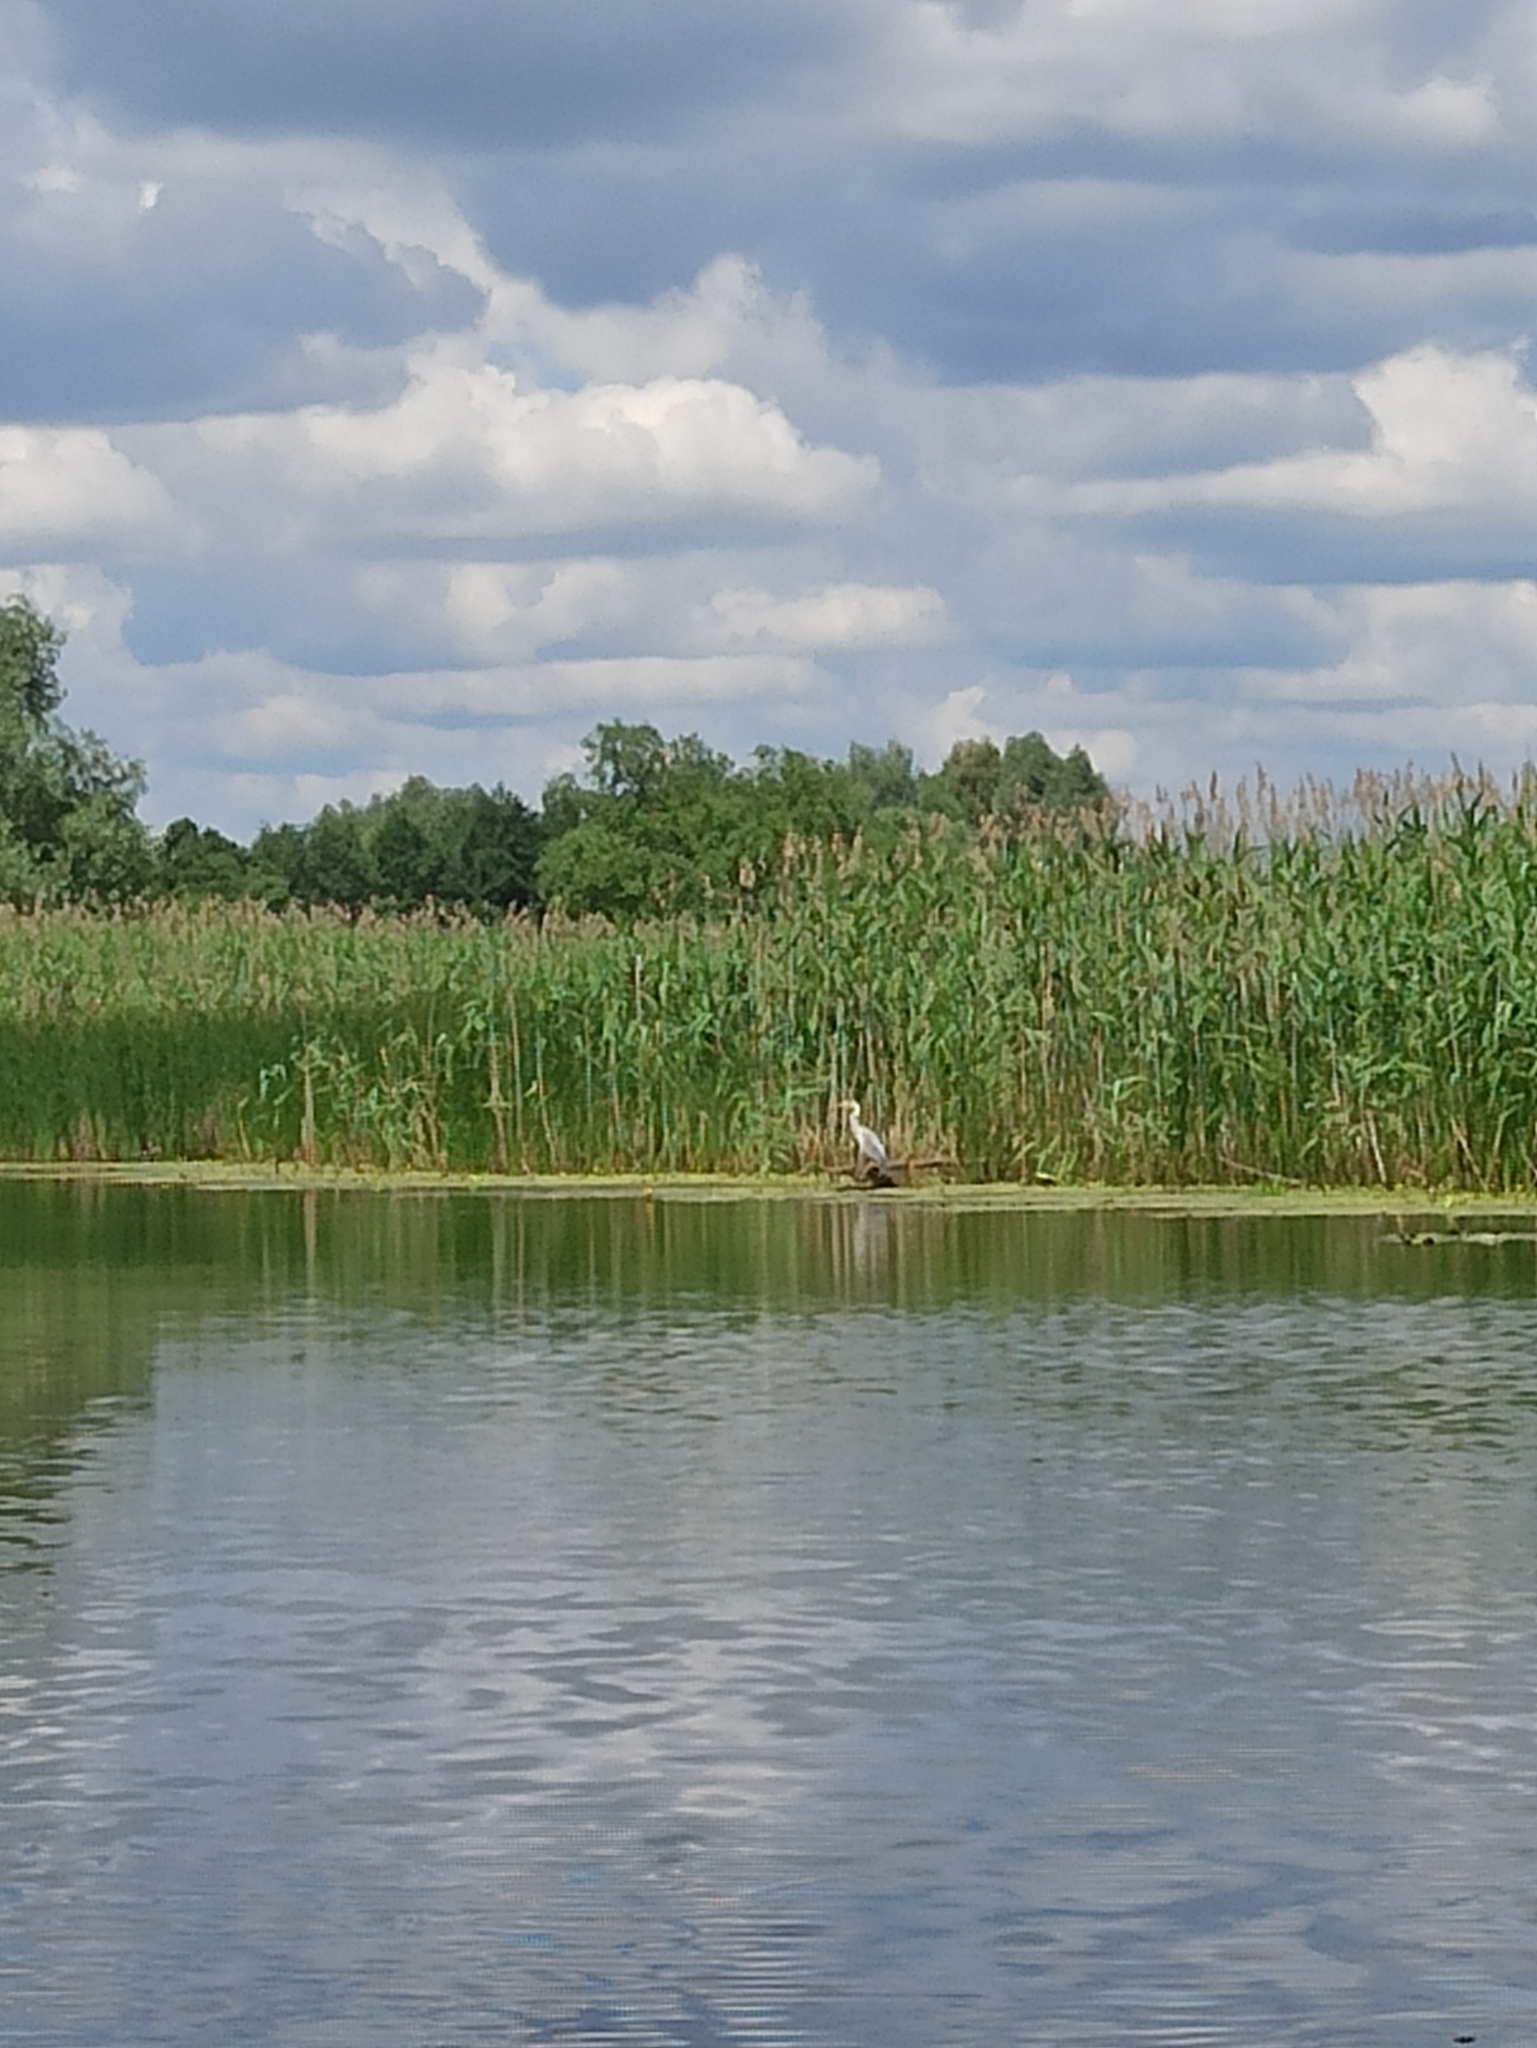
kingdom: Animalia
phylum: Chordata
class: Aves
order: Pelecaniformes
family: Ardeidae
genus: Ardea
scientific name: Ardea cinerea
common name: Grey heron
